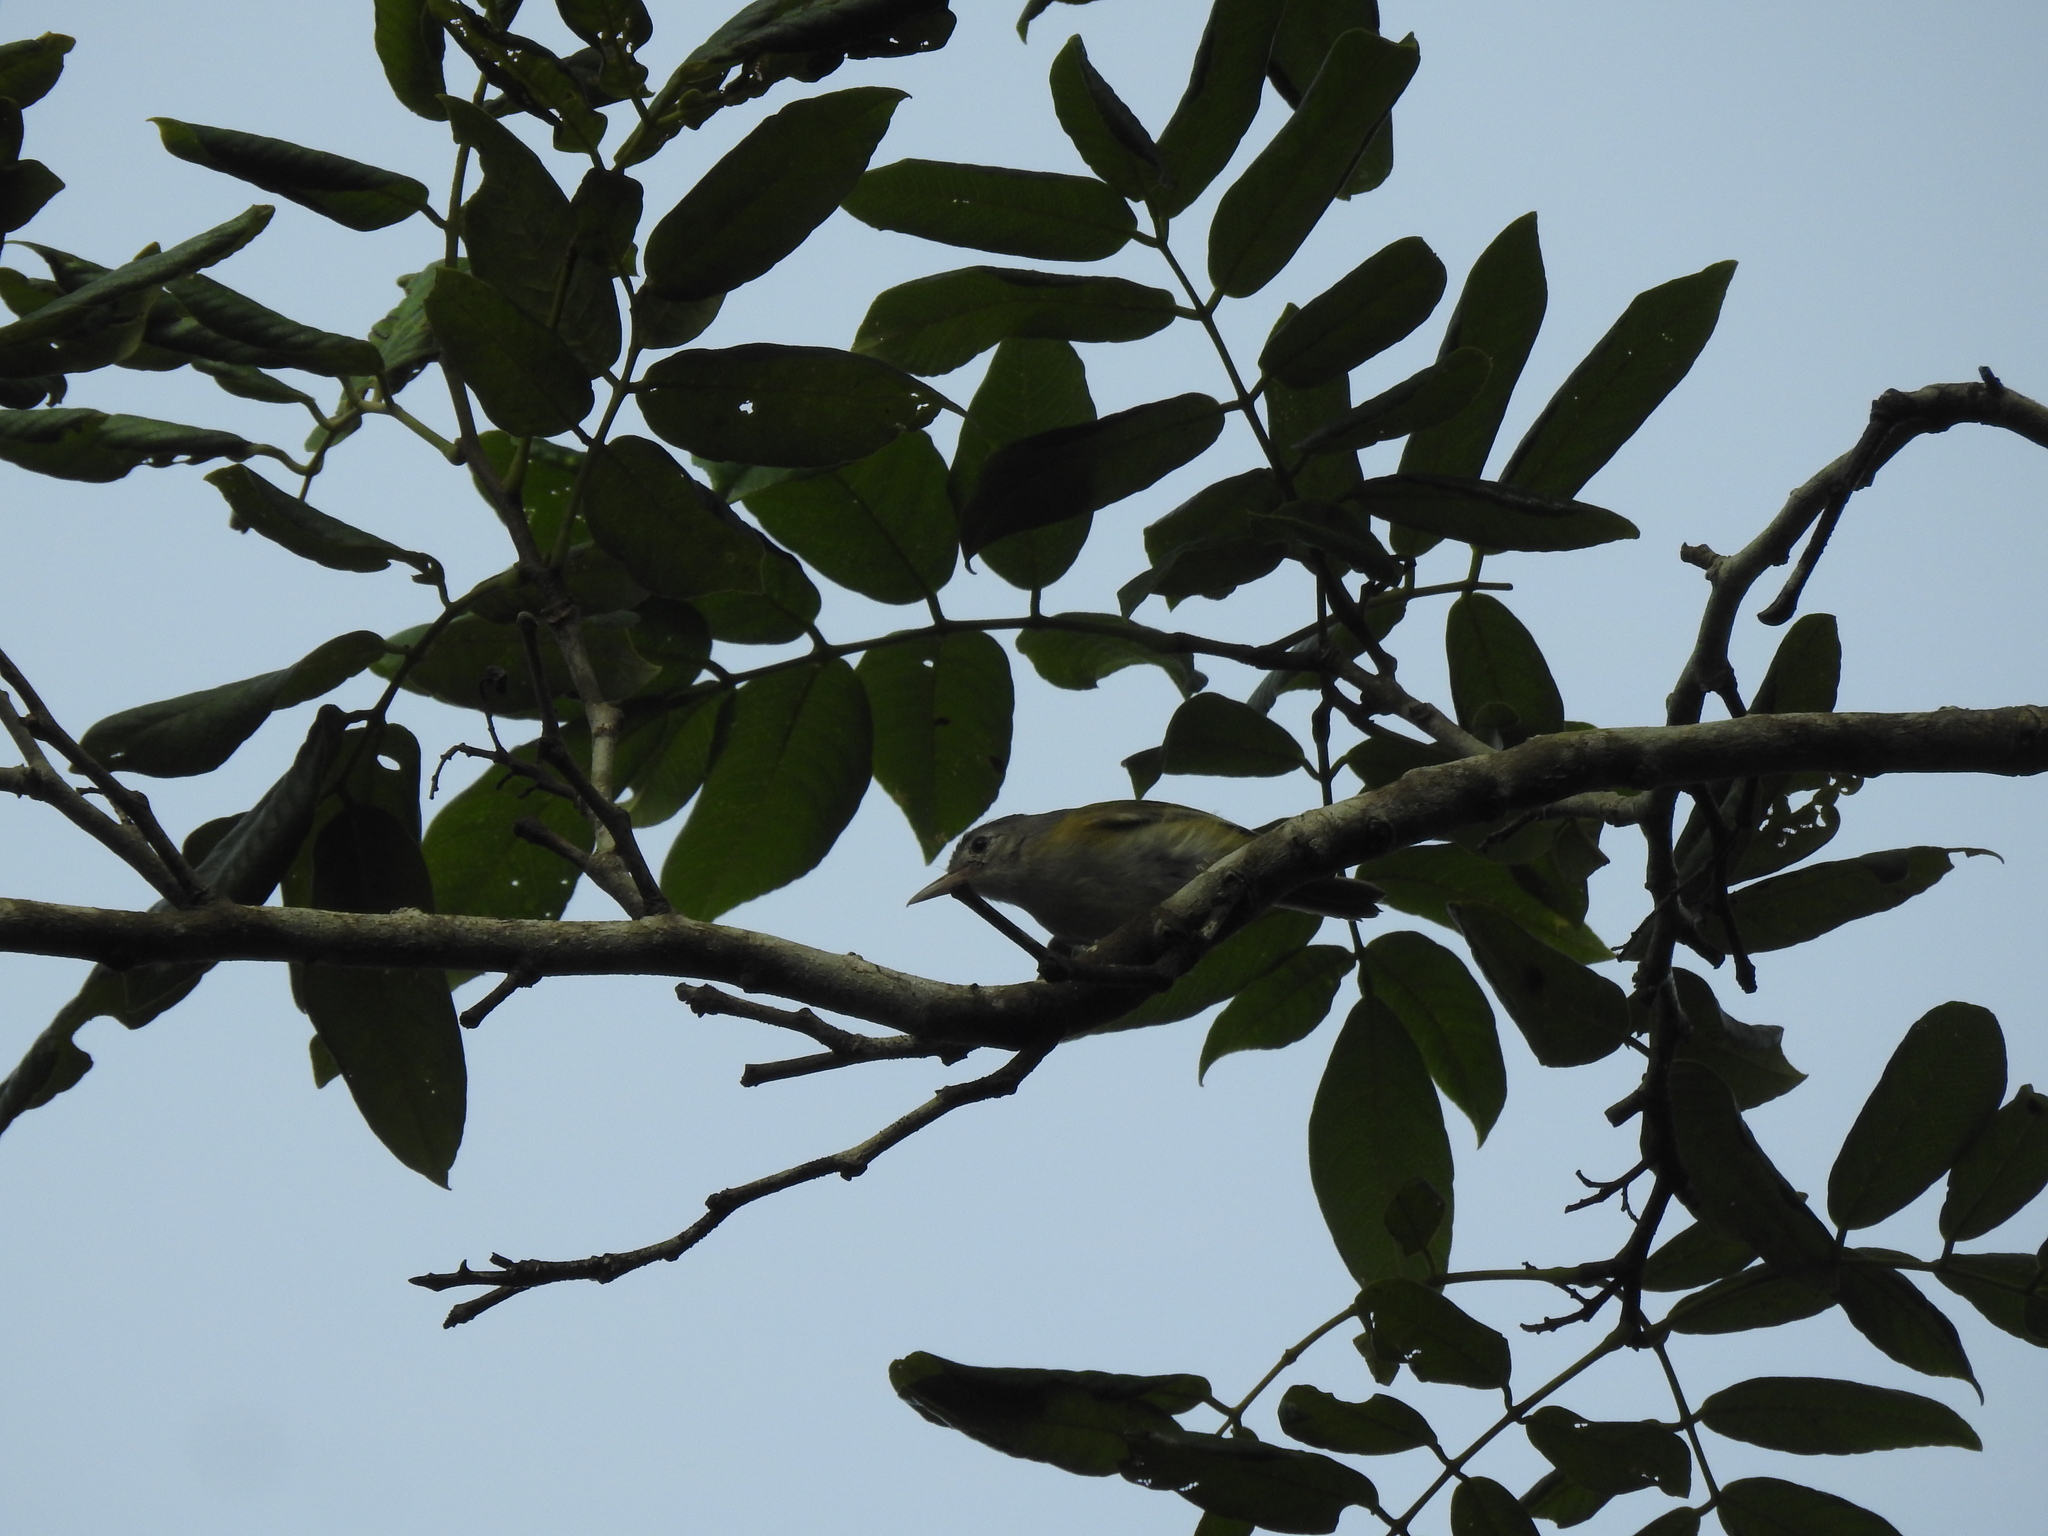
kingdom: Animalia
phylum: Chordata
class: Aves
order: Passeriformes
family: Vireonidae
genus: Hylophilus
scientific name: Hylophilus decurtatus
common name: Lesser greenlet
